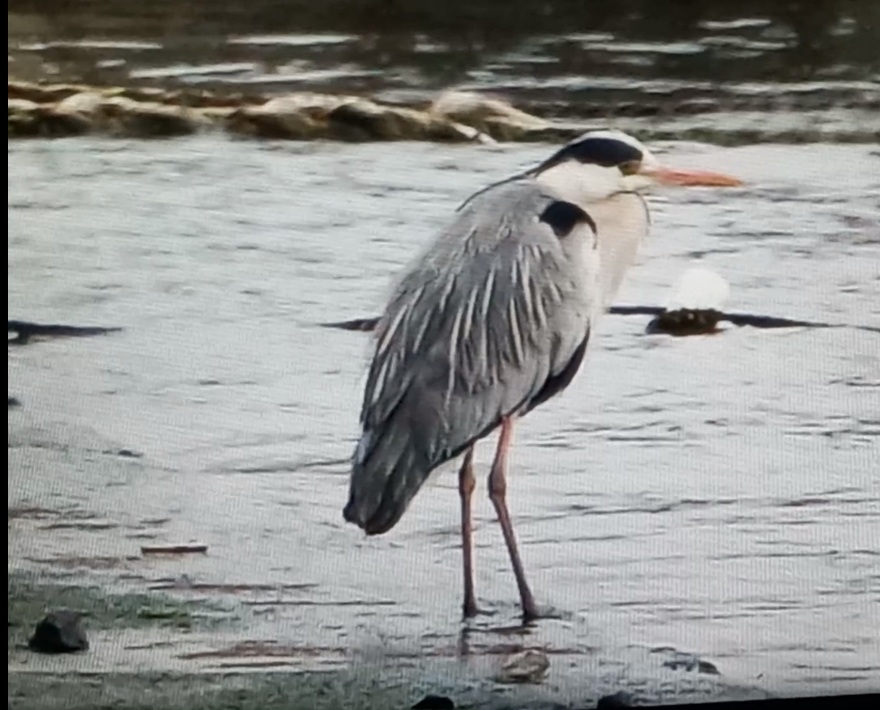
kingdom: Animalia
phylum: Chordata
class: Aves
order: Pelecaniformes
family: Ardeidae
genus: Ardea
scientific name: Ardea cinerea
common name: Grey heron
